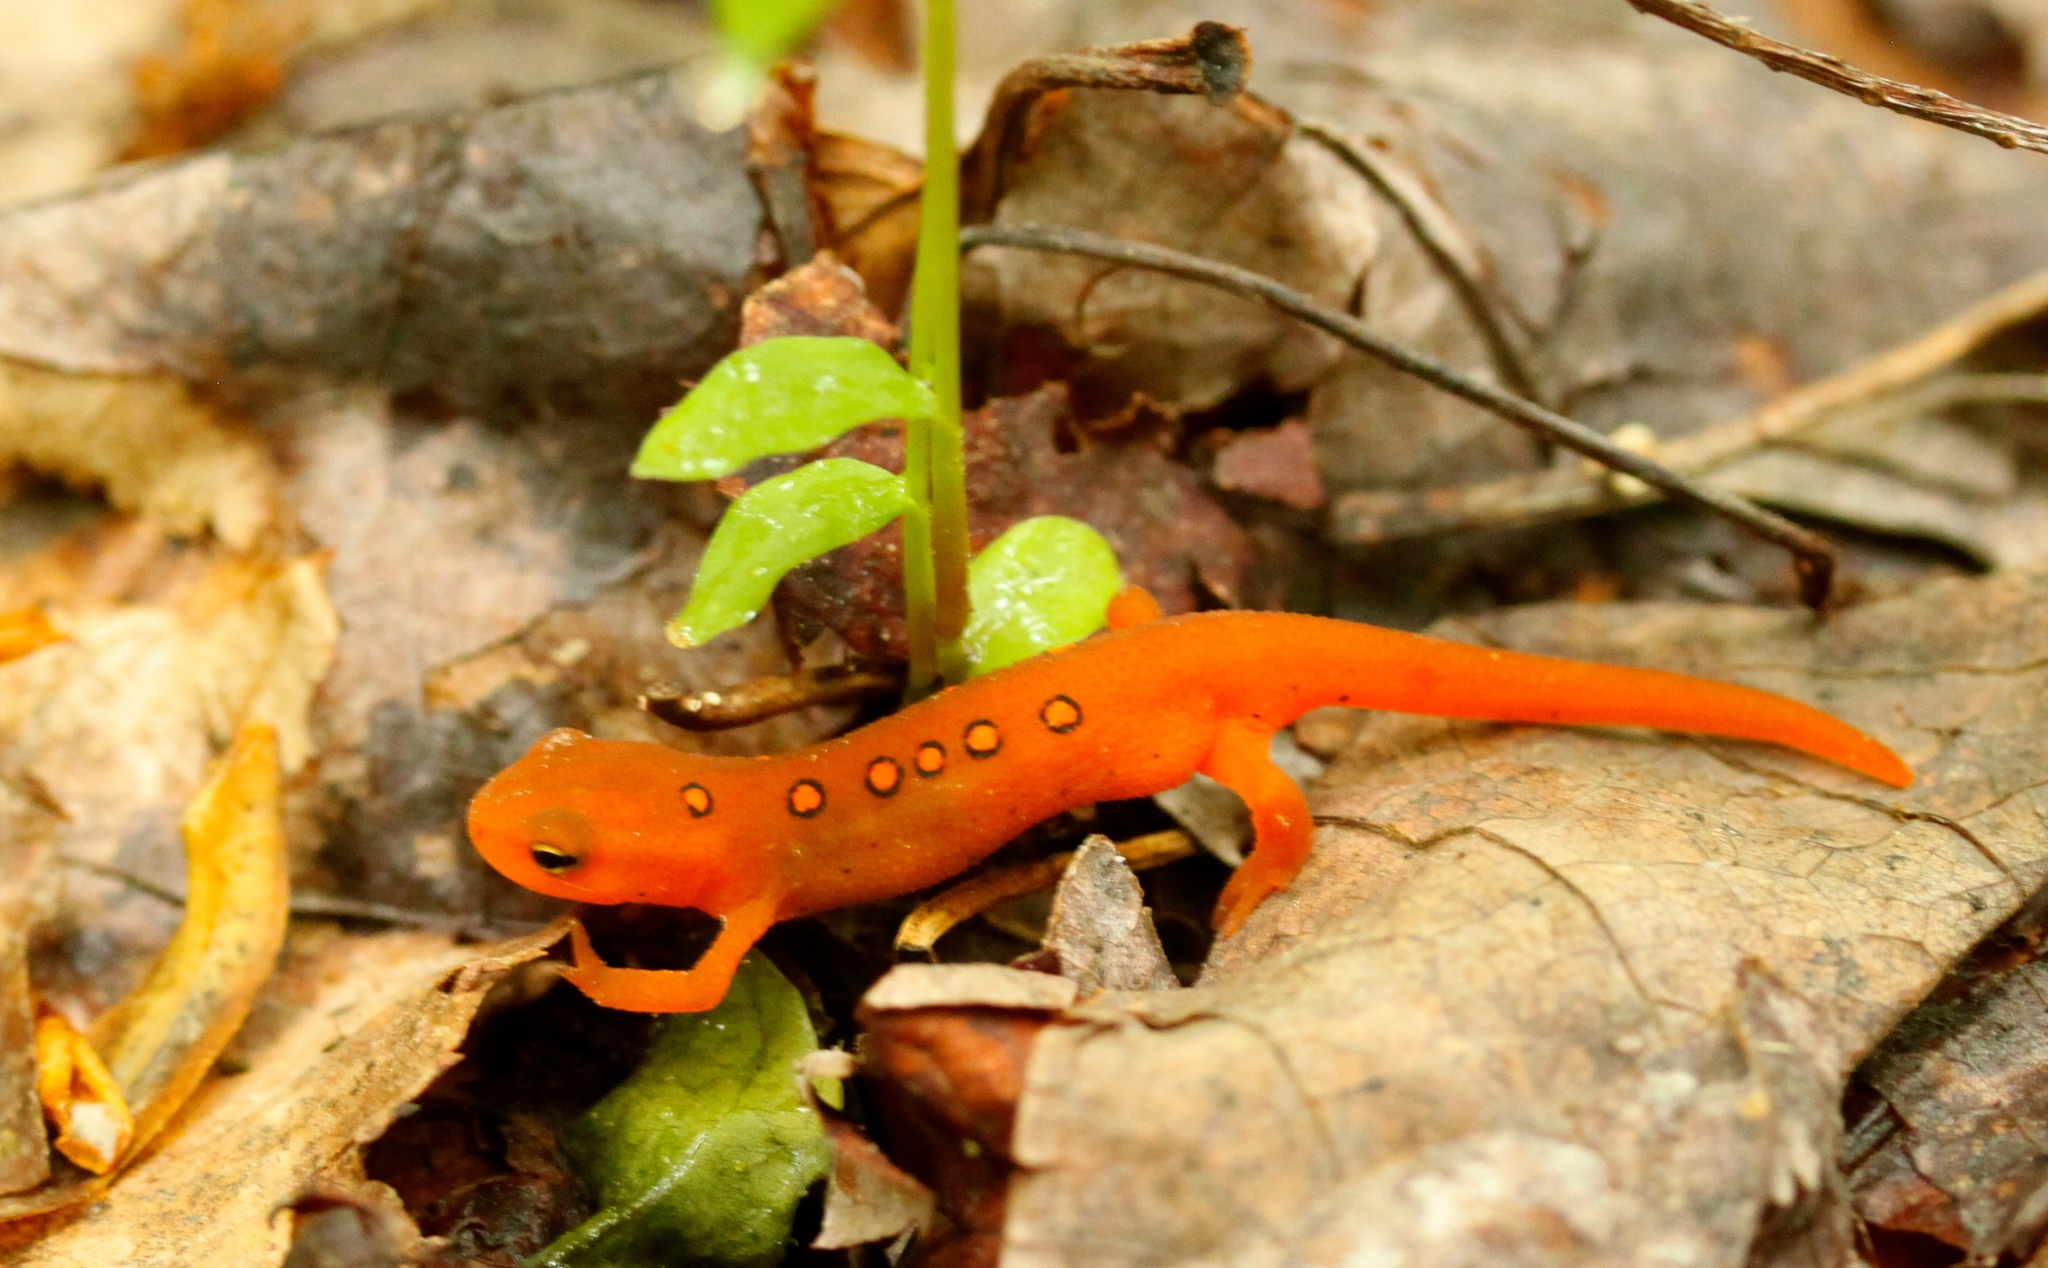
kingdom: Animalia
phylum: Chordata
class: Amphibia
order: Caudata
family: Salamandridae
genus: Notophthalmus
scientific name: Notophthalmus viridescens
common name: Eastern newt
